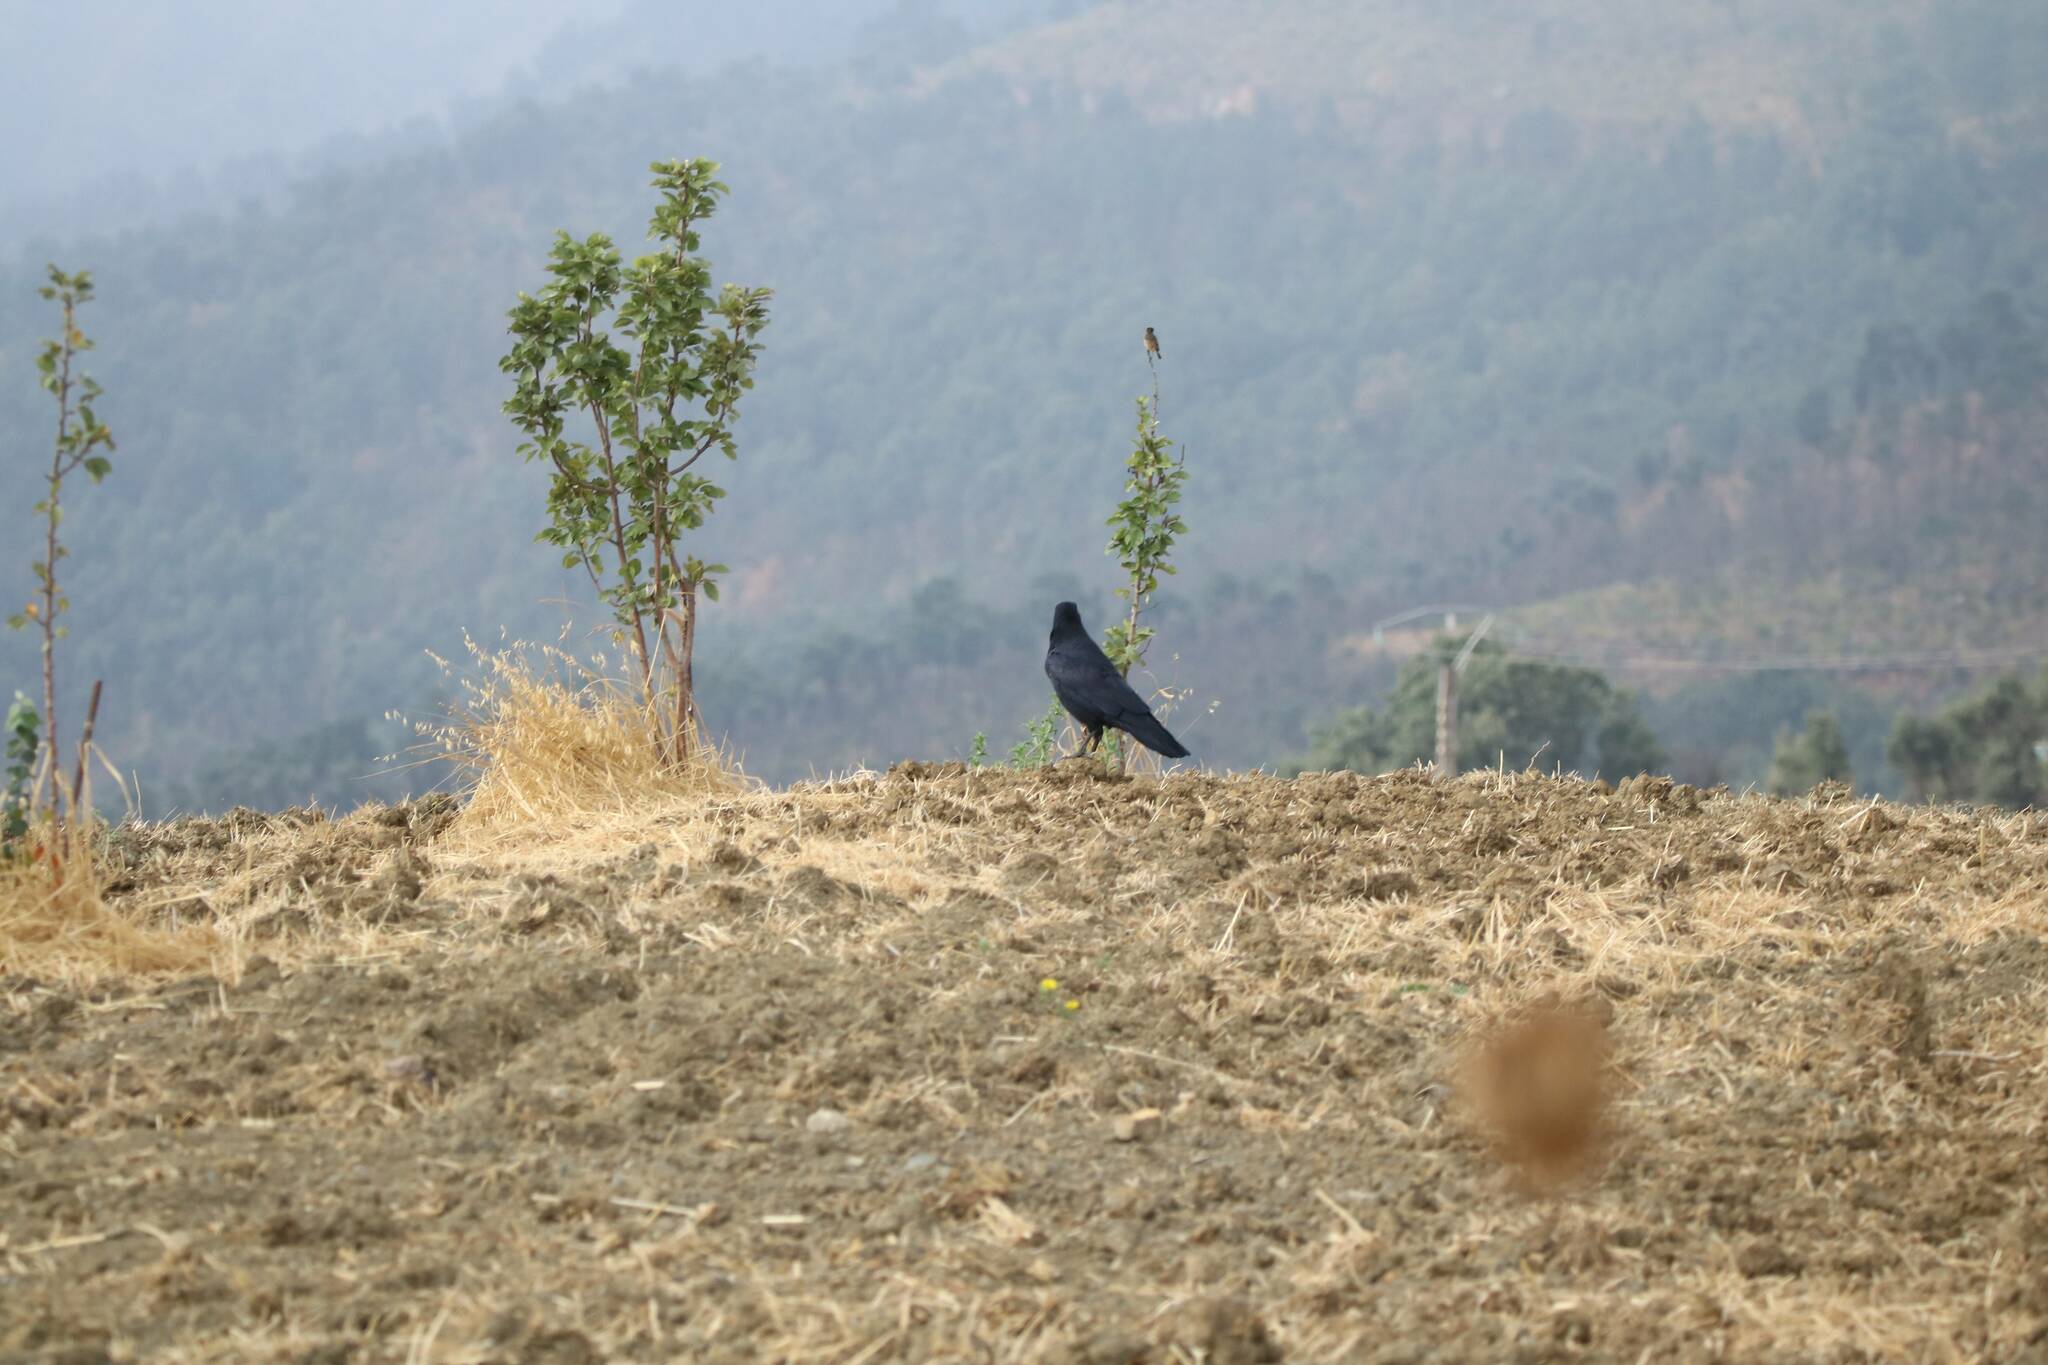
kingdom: Animalia
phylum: Chordata
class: Aves
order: Passeriformes
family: Corvidae
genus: Corvus
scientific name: Corvus corax
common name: Common raven
